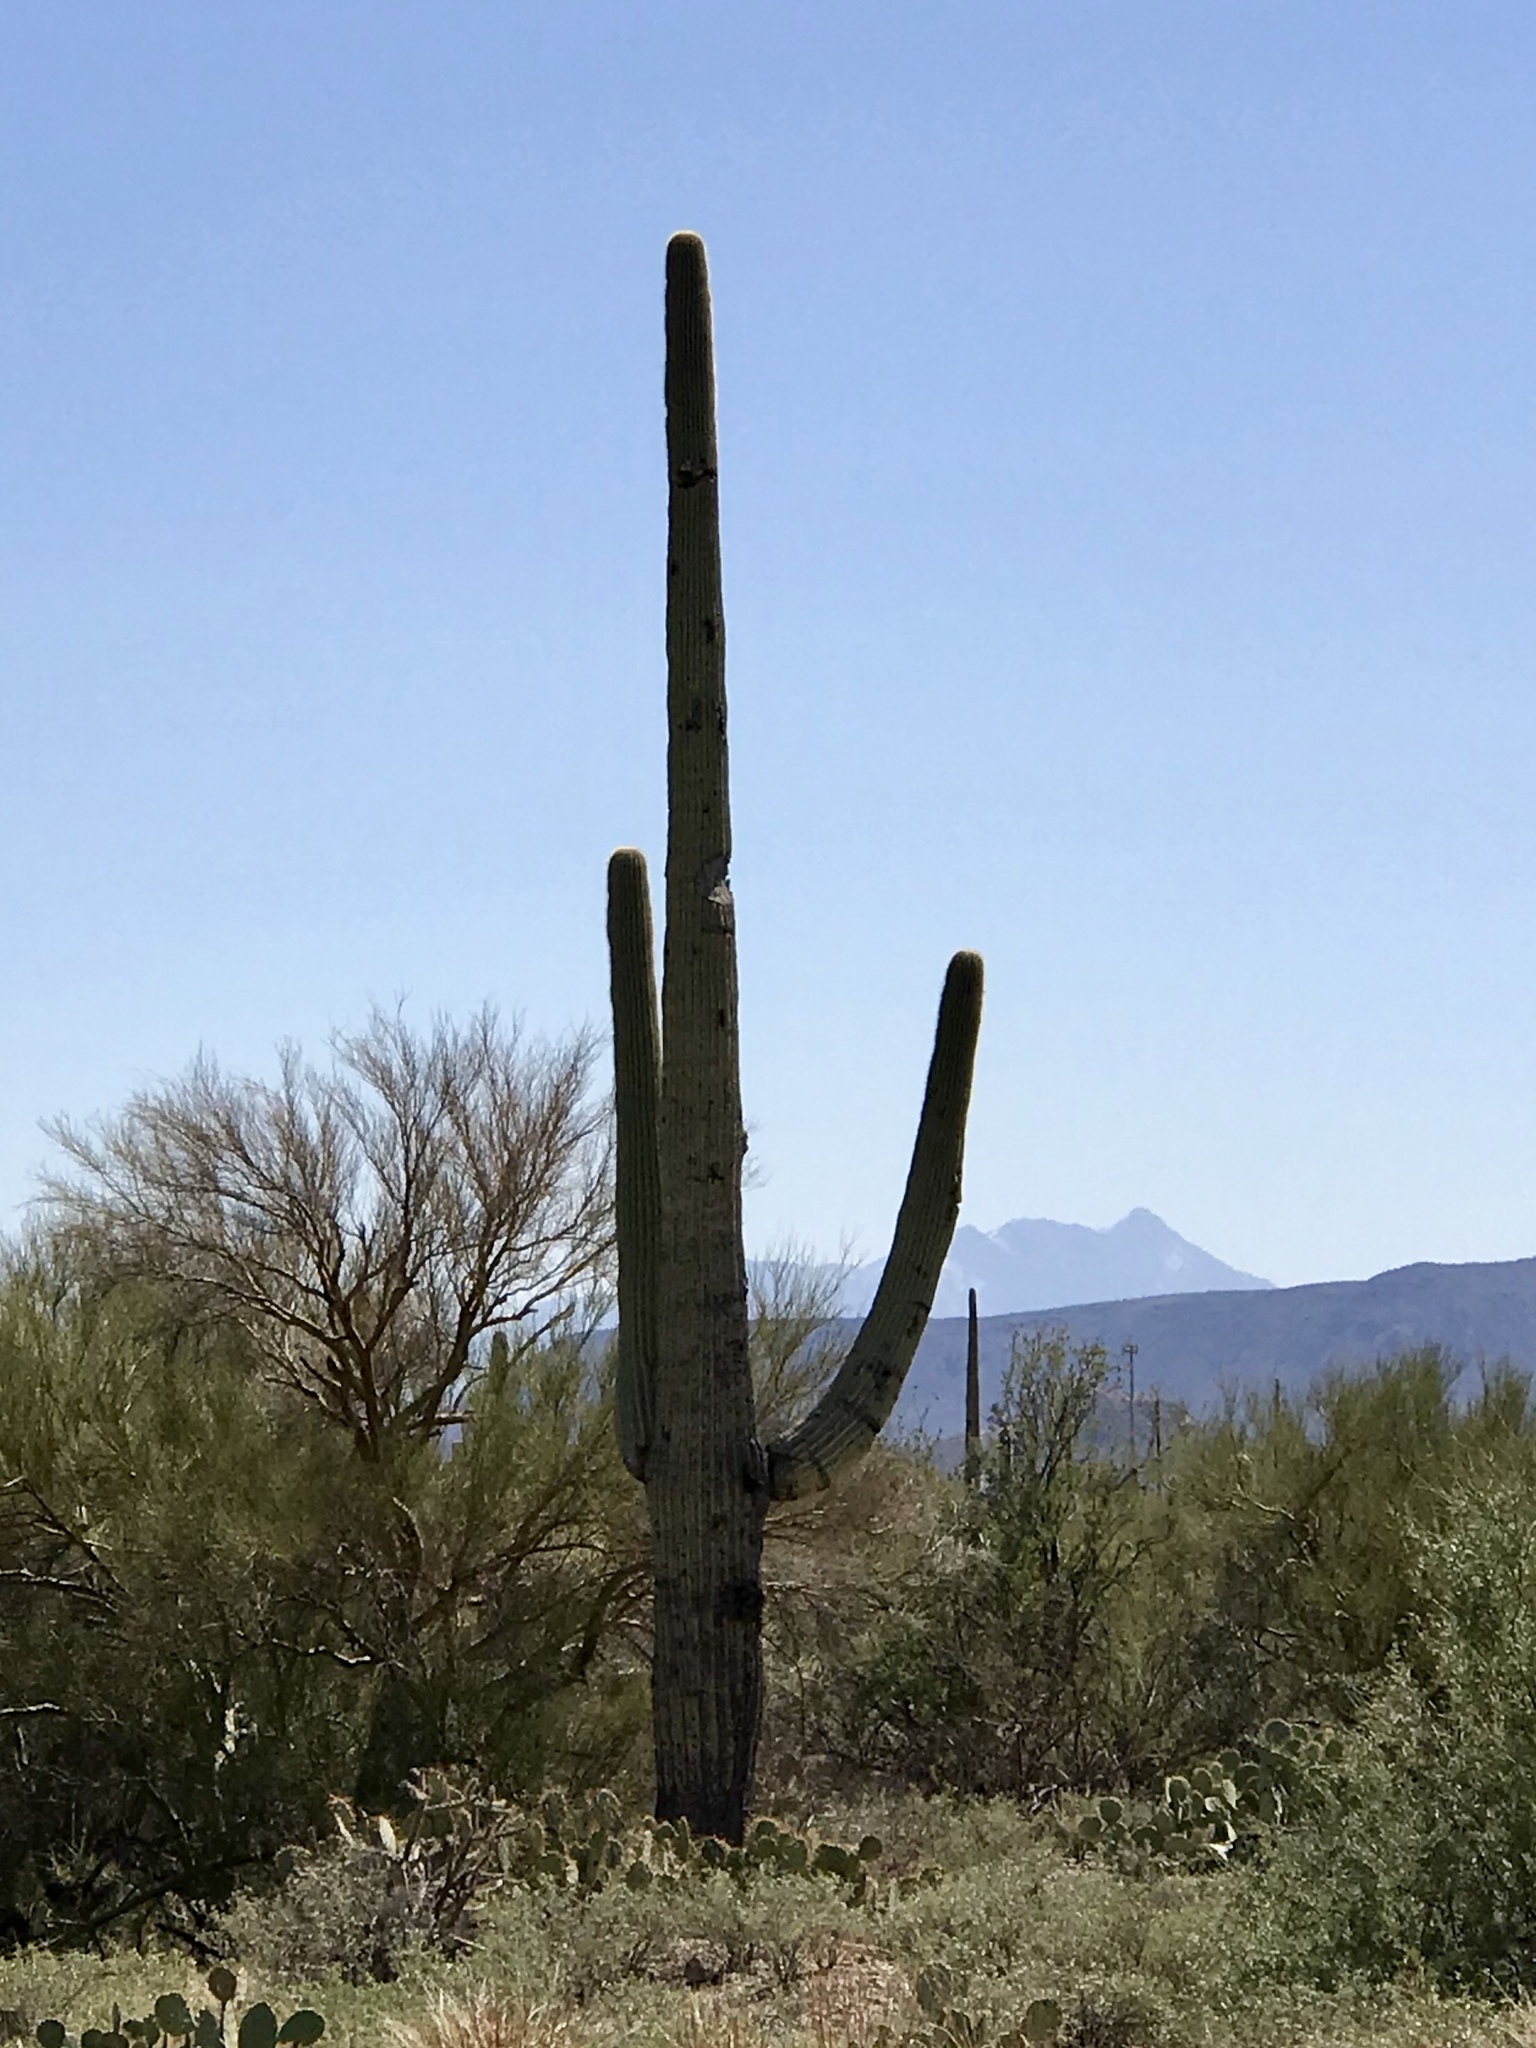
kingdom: Plantae
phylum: Tracheophyta
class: Magnoliopsida
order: Caryophyllales
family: Cactaceae
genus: Carnegiea
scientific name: Carnegiea gigantea
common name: Saguaro
